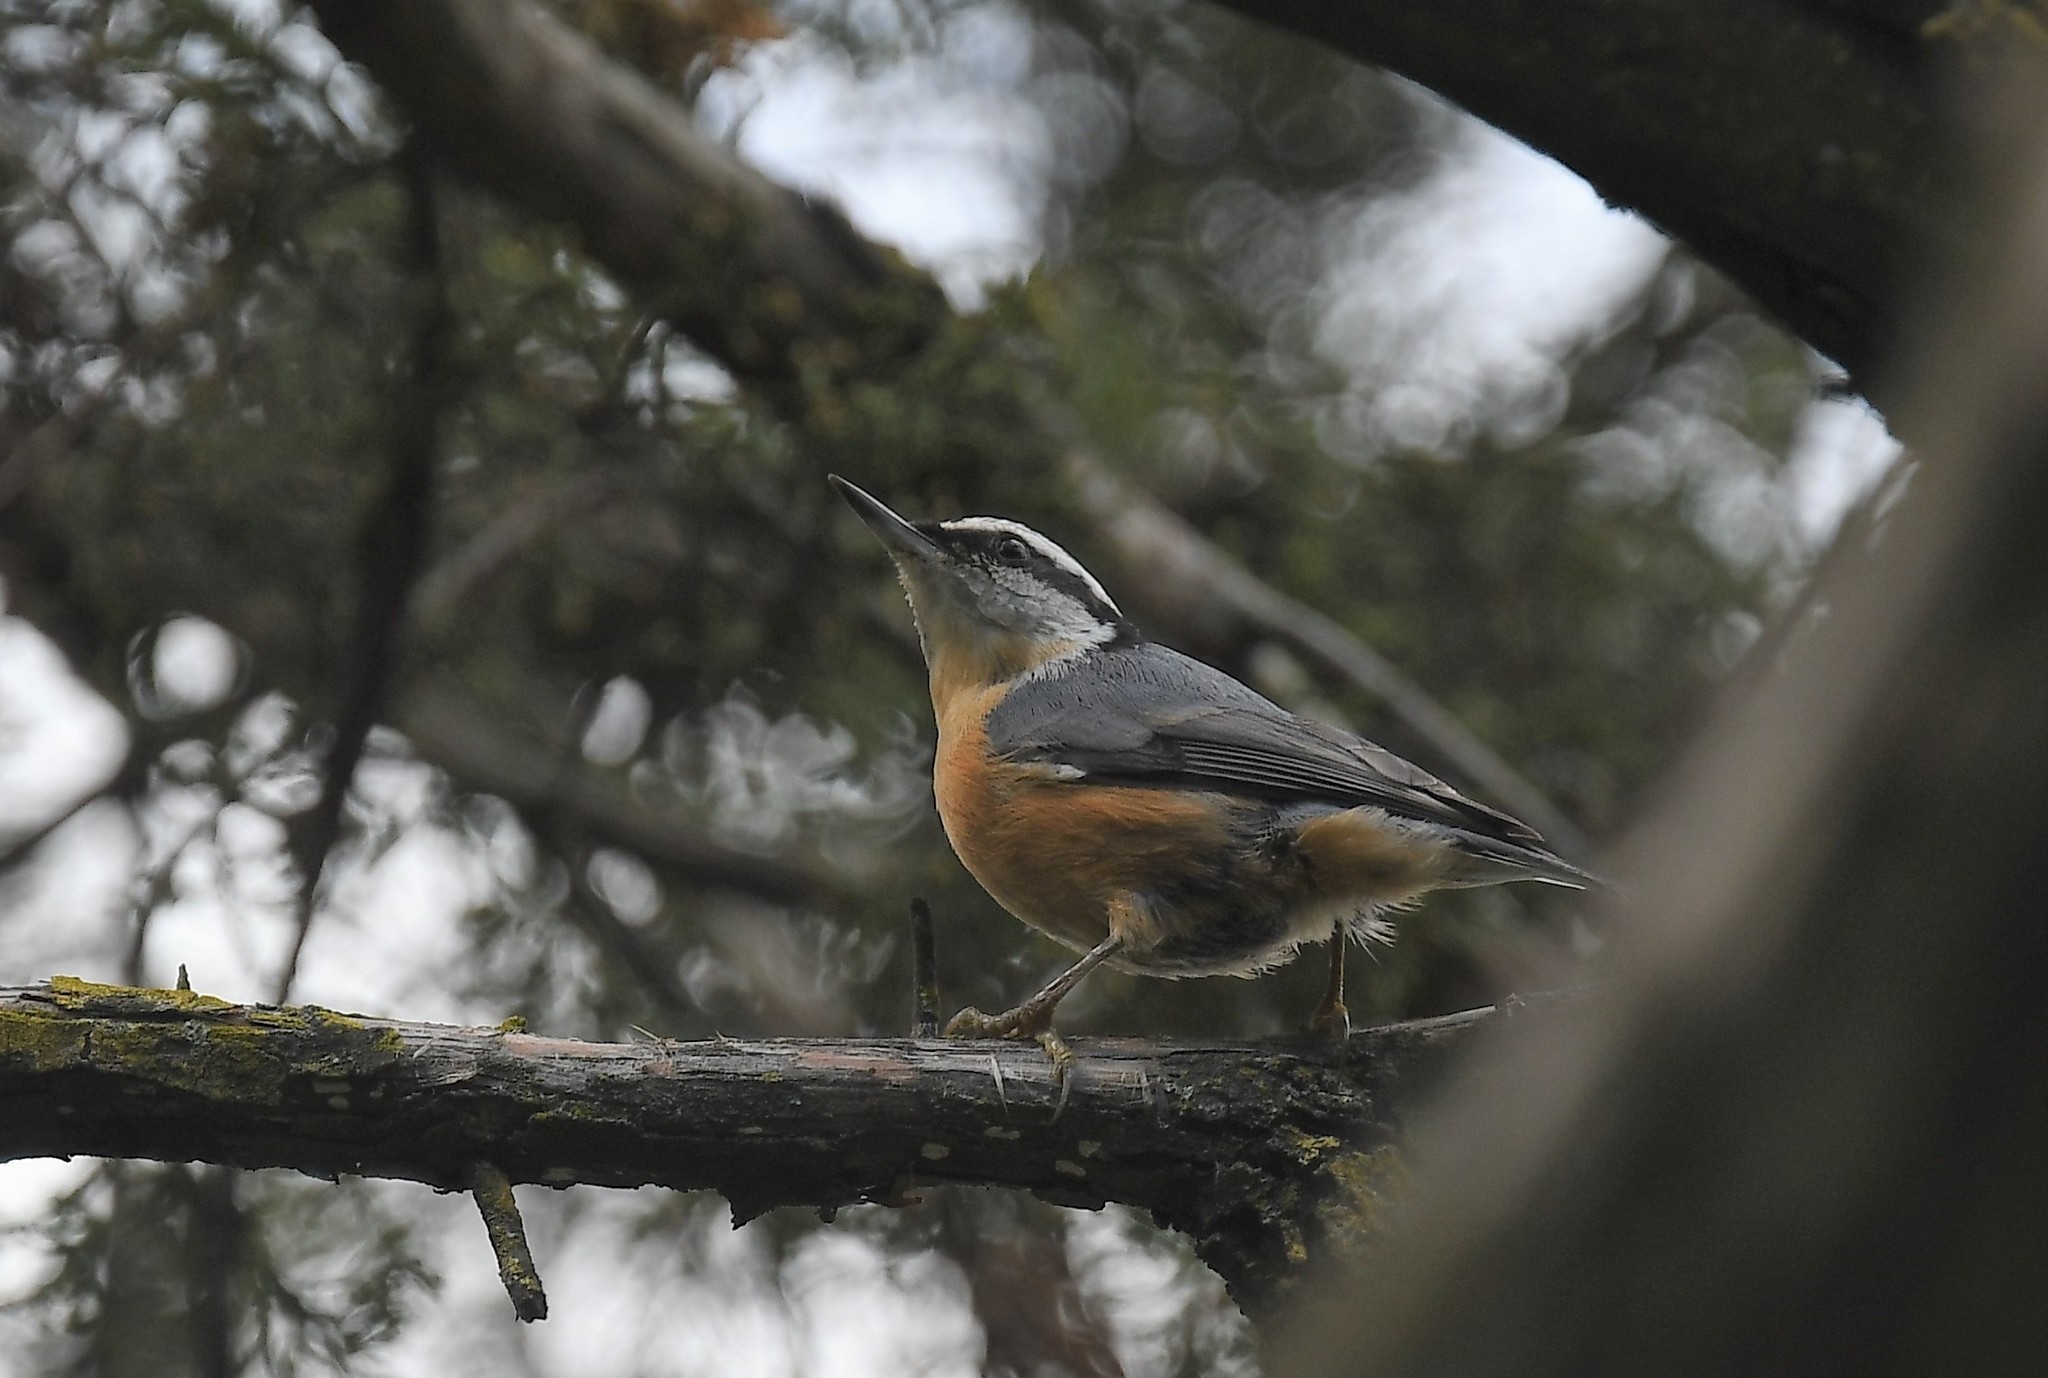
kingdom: Animalia
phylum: Chordata
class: Aves
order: Passeriformes
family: Sittidae
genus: Sitta
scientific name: Sitta canadensis
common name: Red-breasted nuthatch
